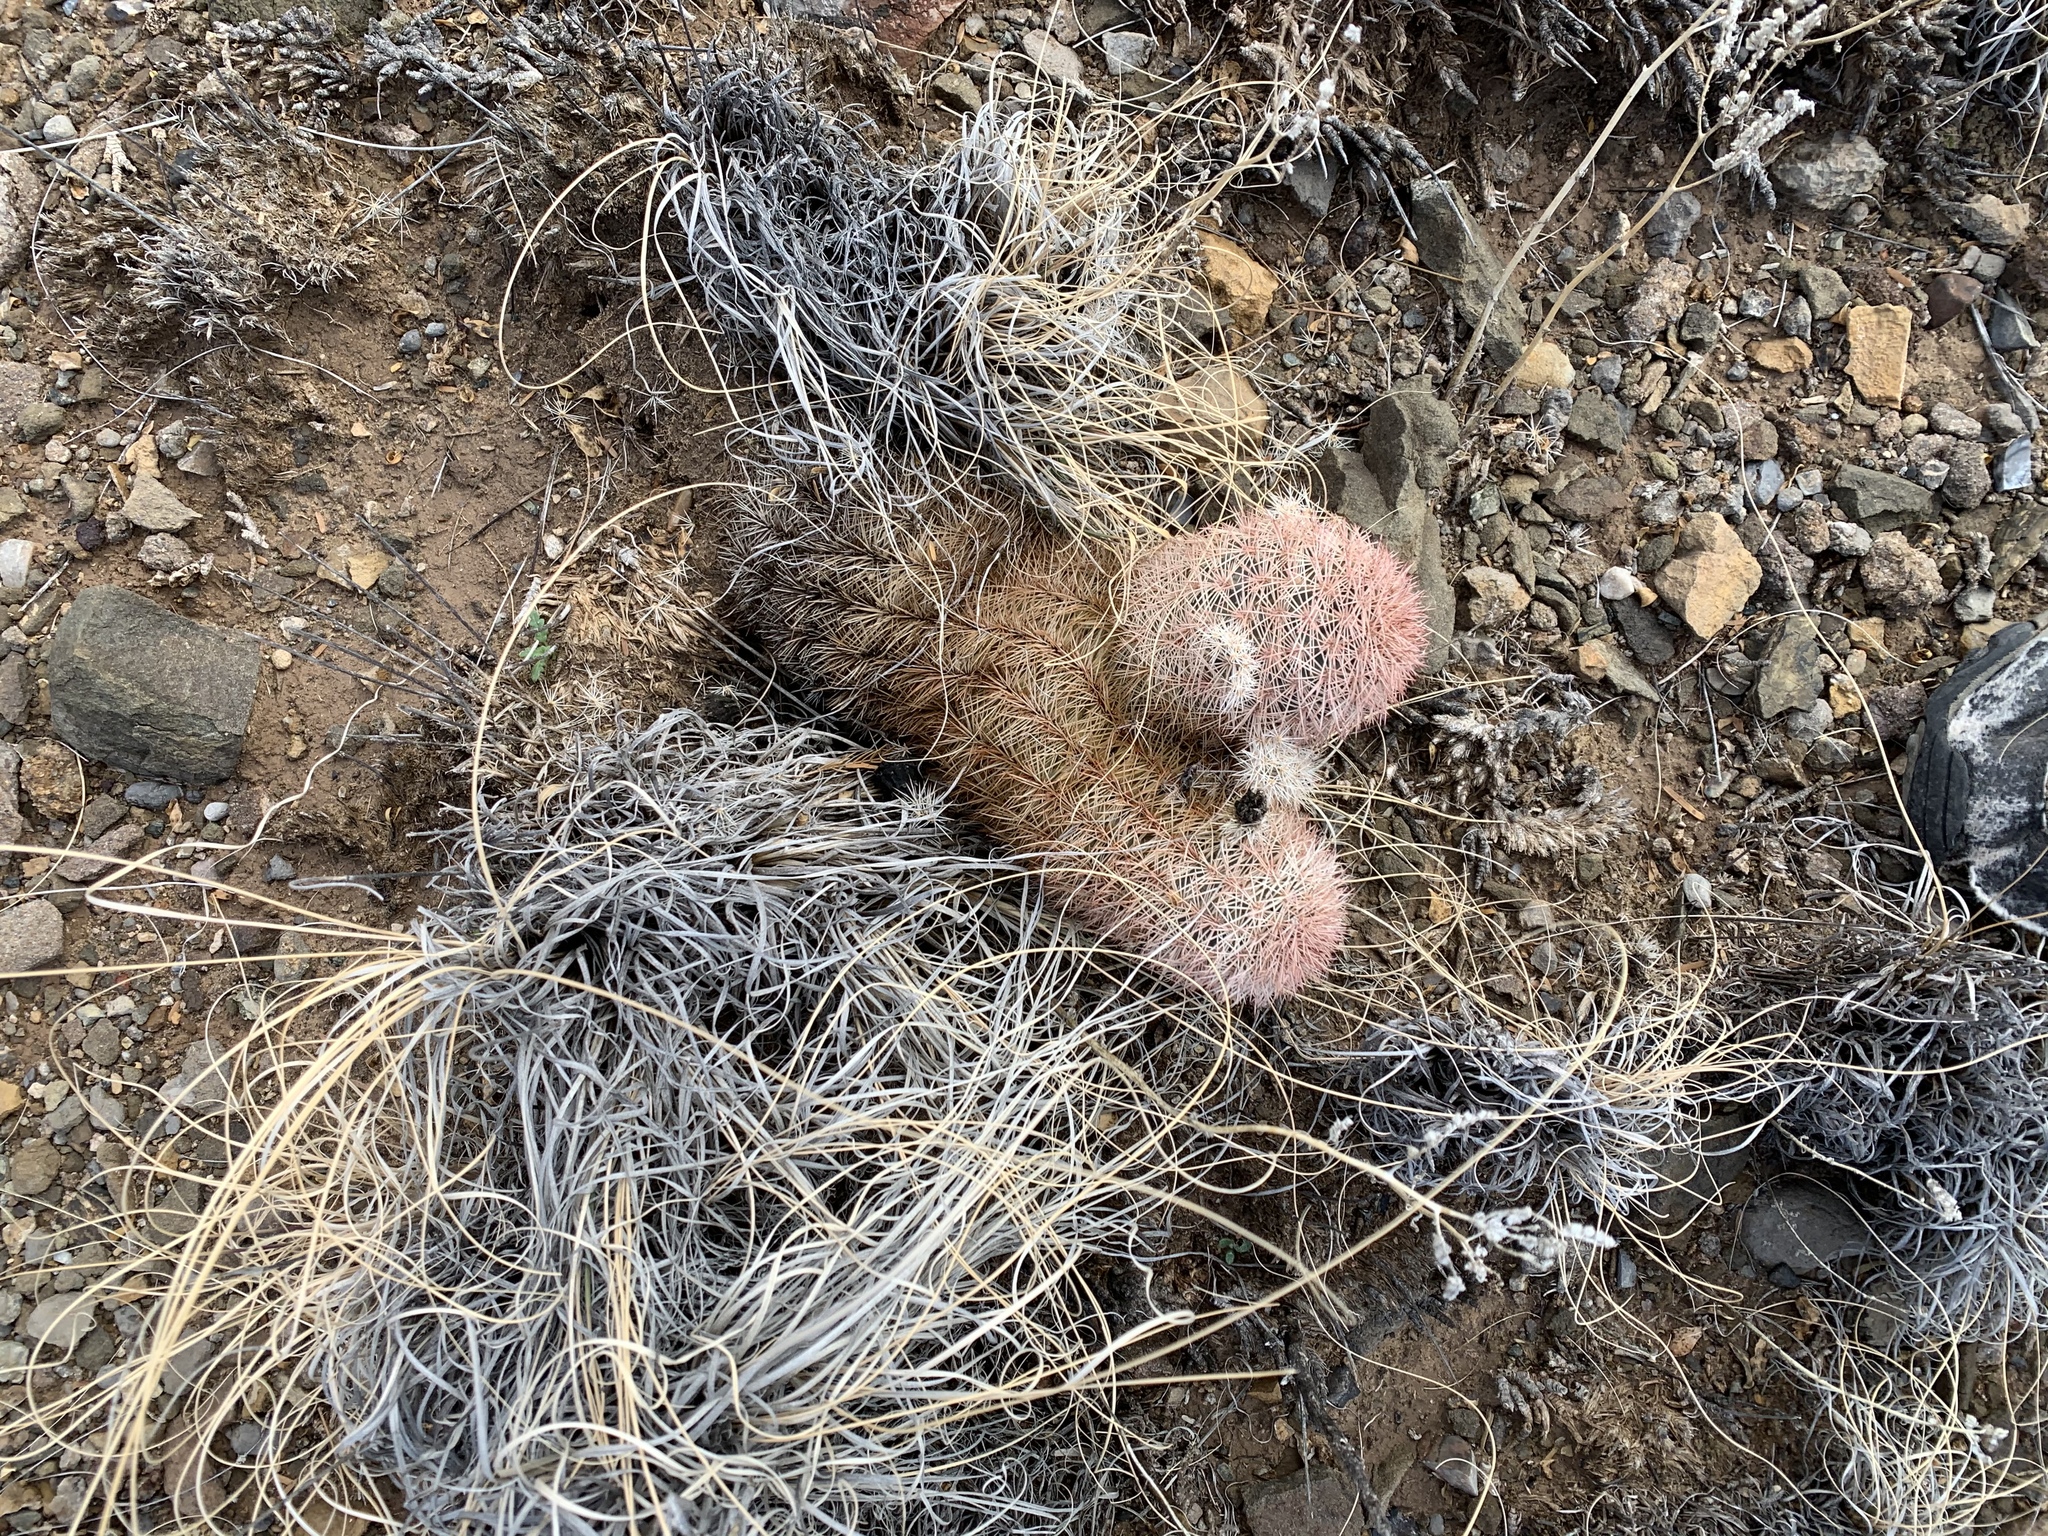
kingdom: Plantae
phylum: Tracheophyta
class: Magnoliopsida
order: Caryophyllales
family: Cactaceae
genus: Echinocereus
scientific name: Echinocereus dasyacanthus
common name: Spiny hedgehog cactus
